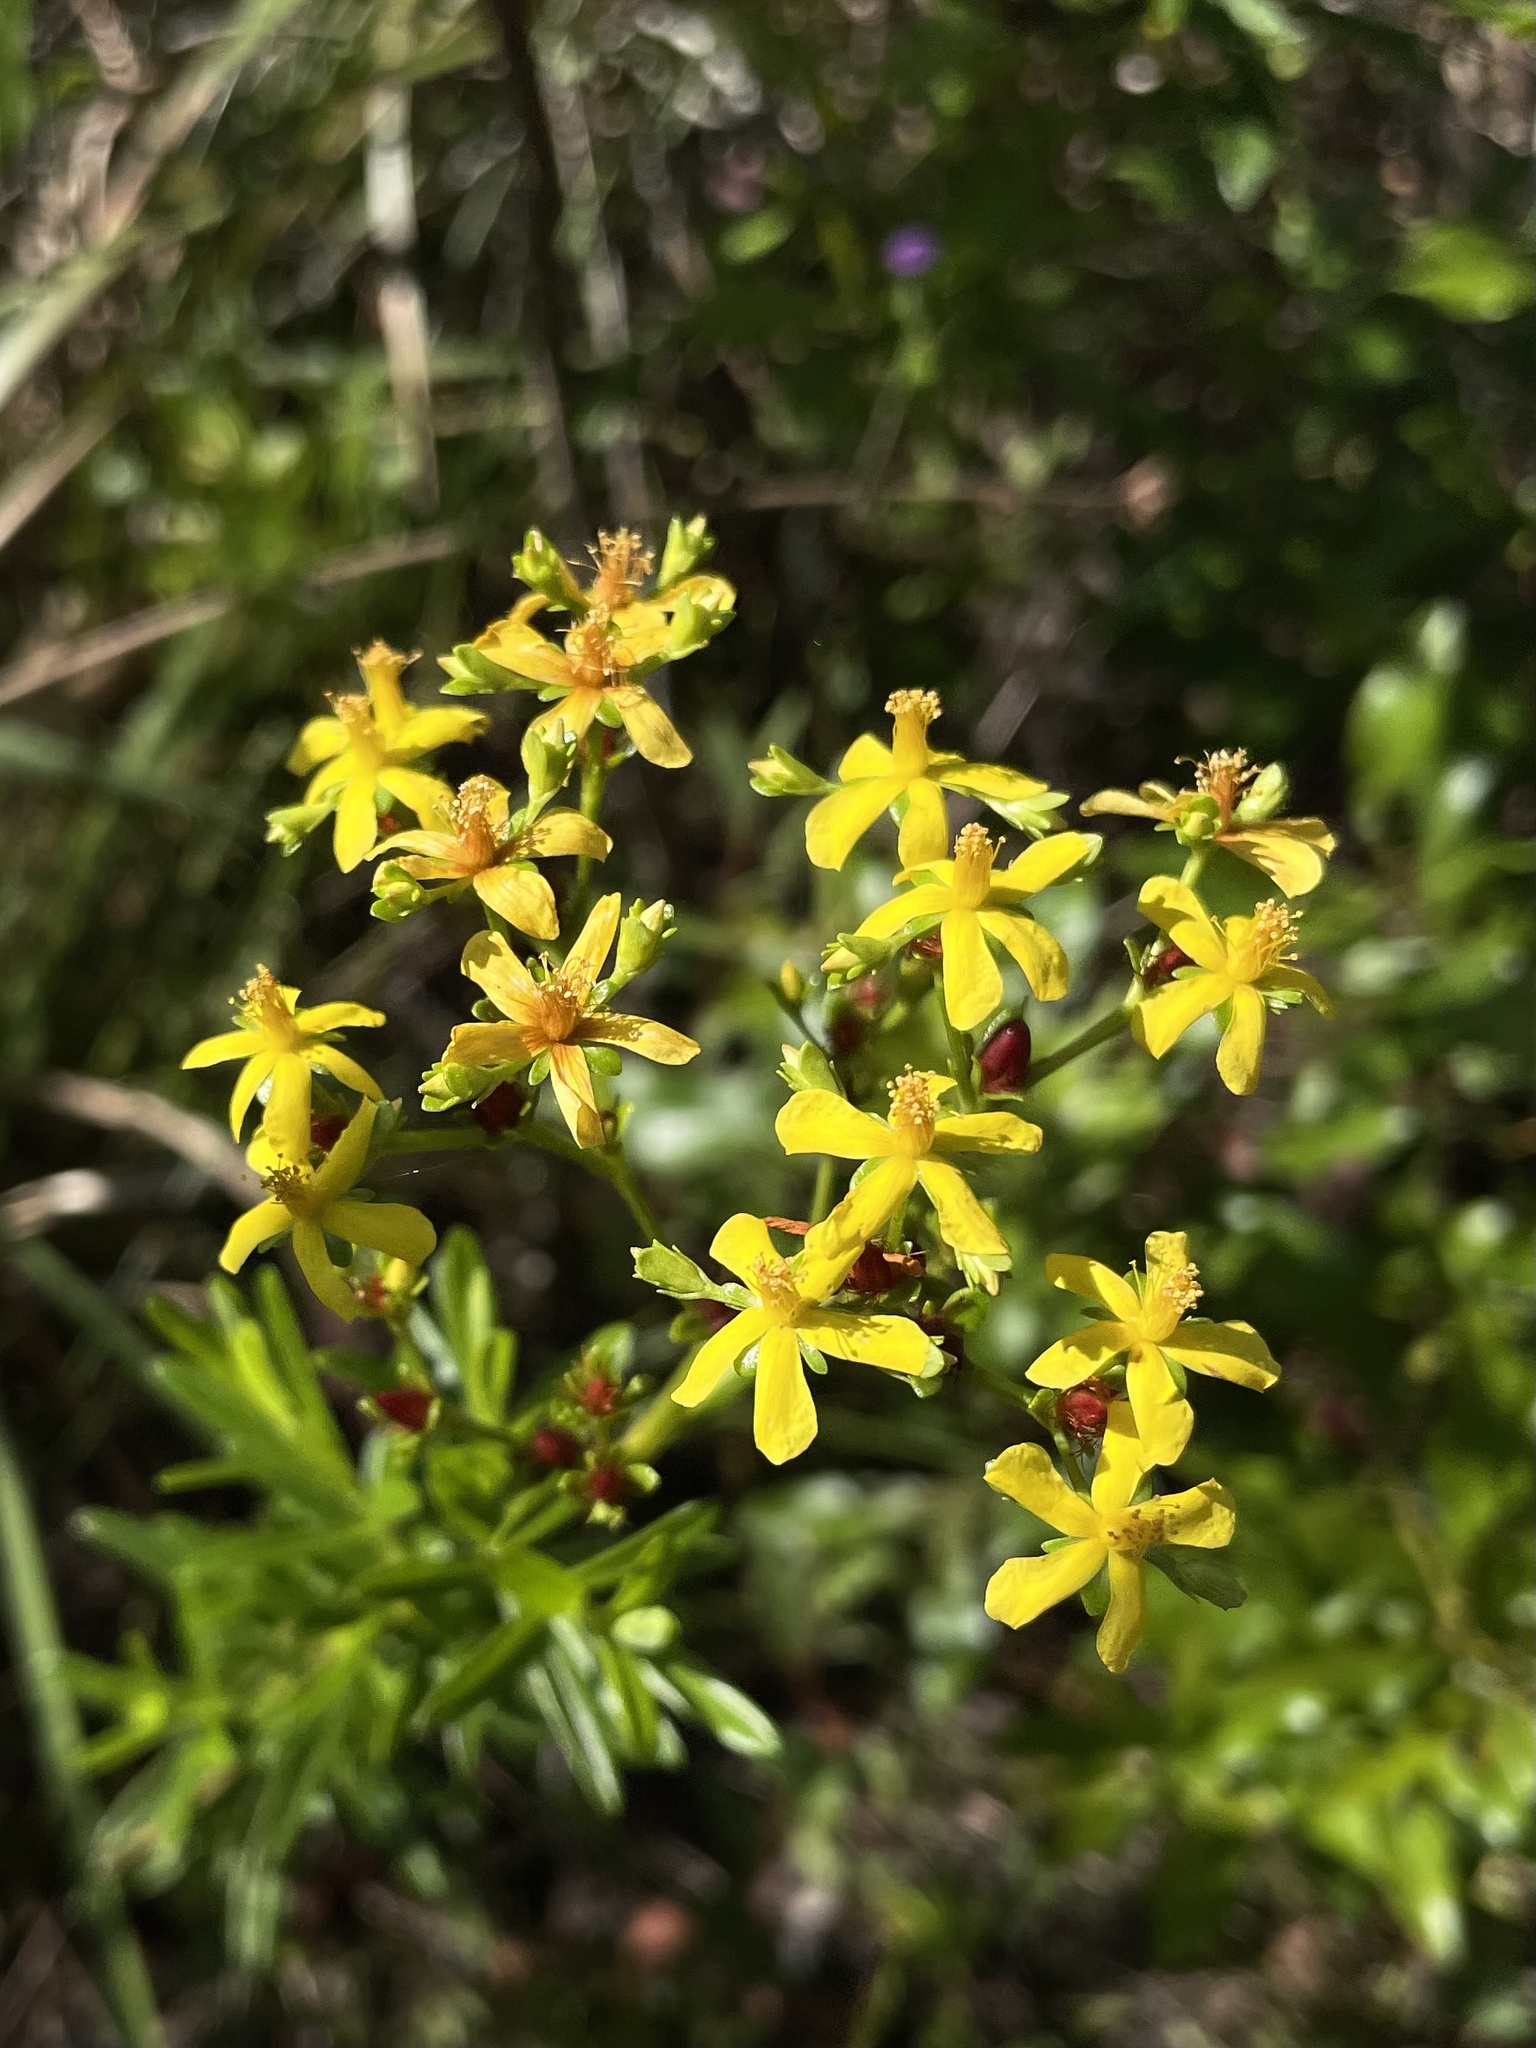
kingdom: Plantae
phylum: Tracheophyta
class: Magnoliopsida
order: Malpighiales
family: Hypericaceae
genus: Hypericum
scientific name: Hypericum cistifolium
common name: Round-pod st. john's-wort
